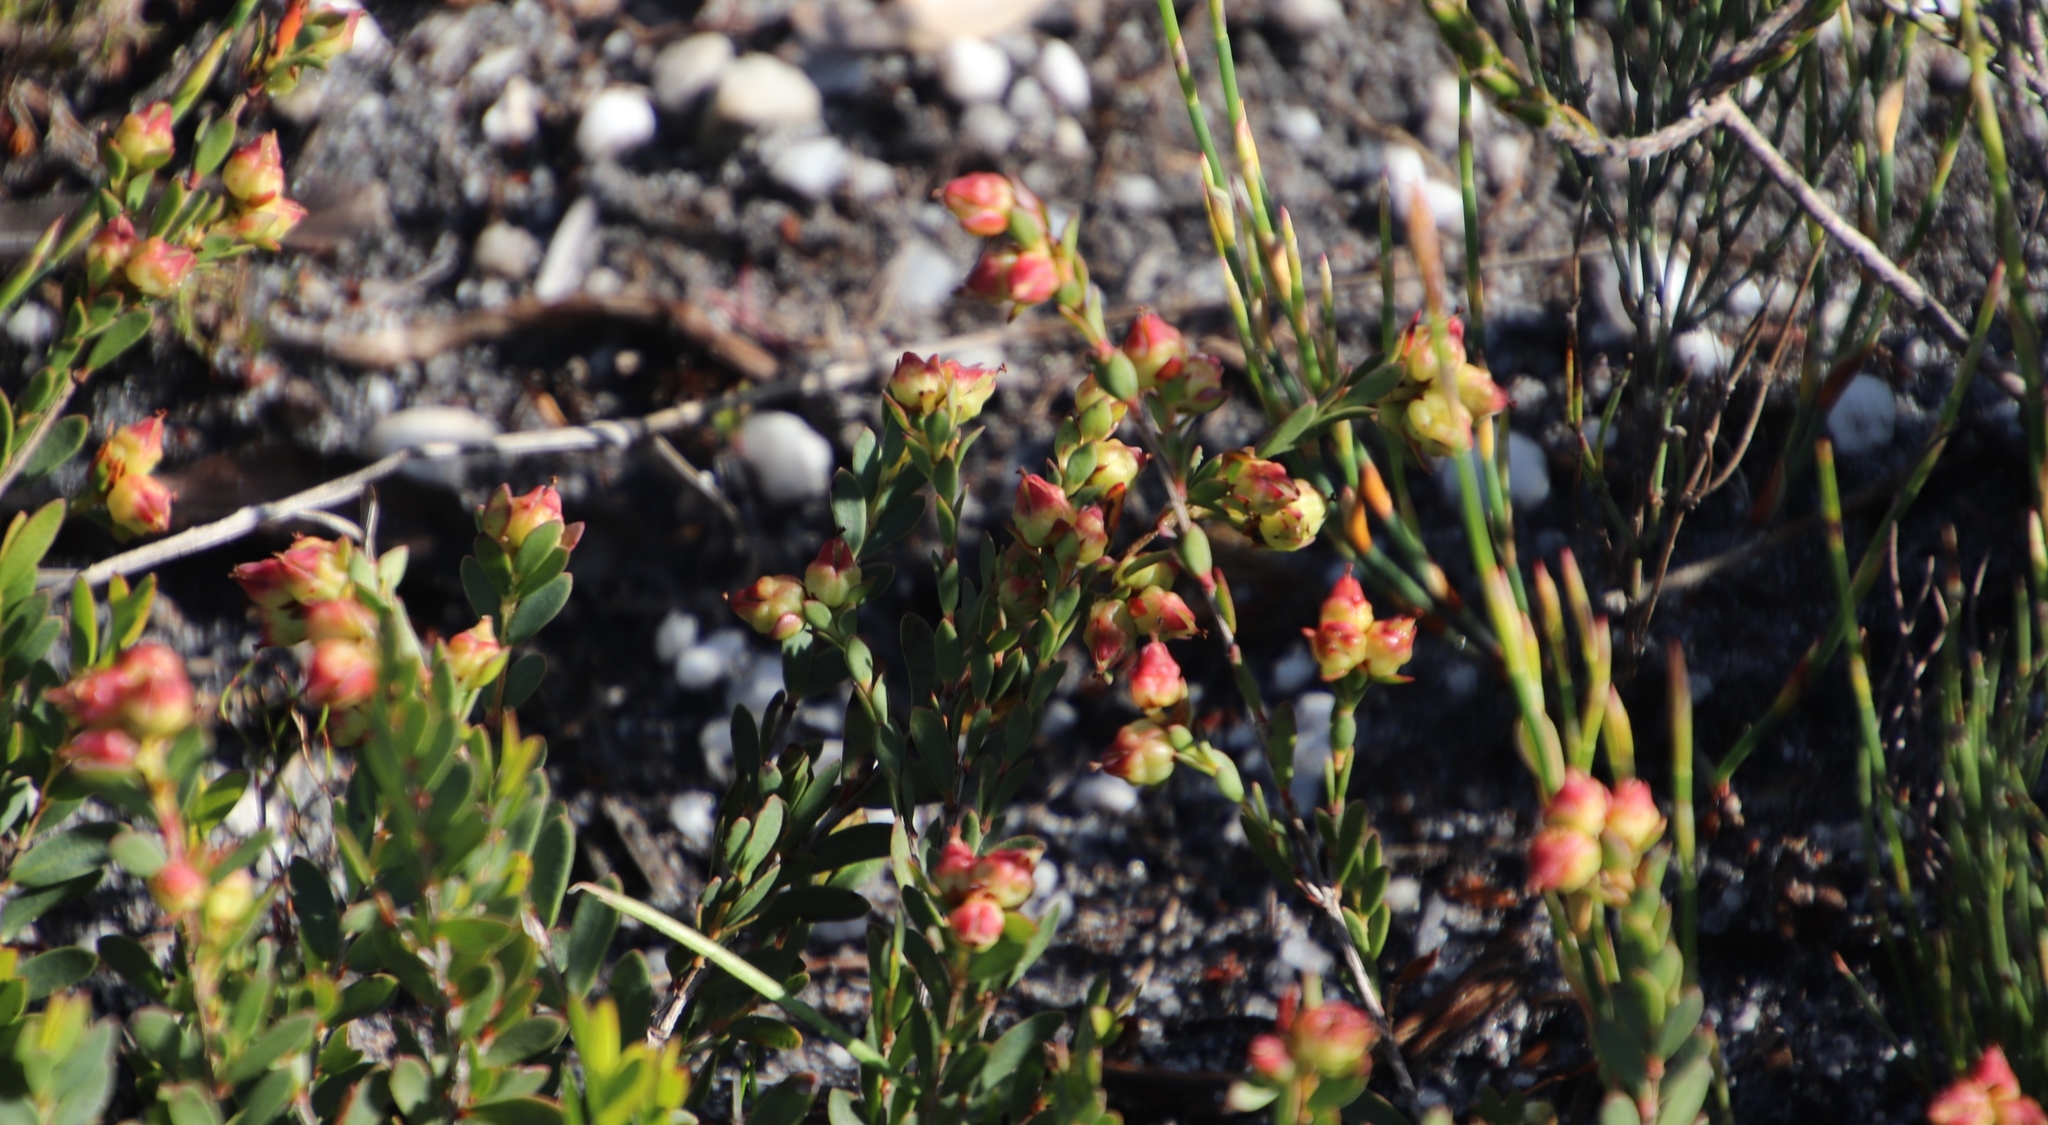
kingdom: Plantae
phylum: Tracheophyta
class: Magnoliopsida
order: Myrtales
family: Penaeaceae
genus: Stylapterus
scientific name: Stylapterus fruticulosus
